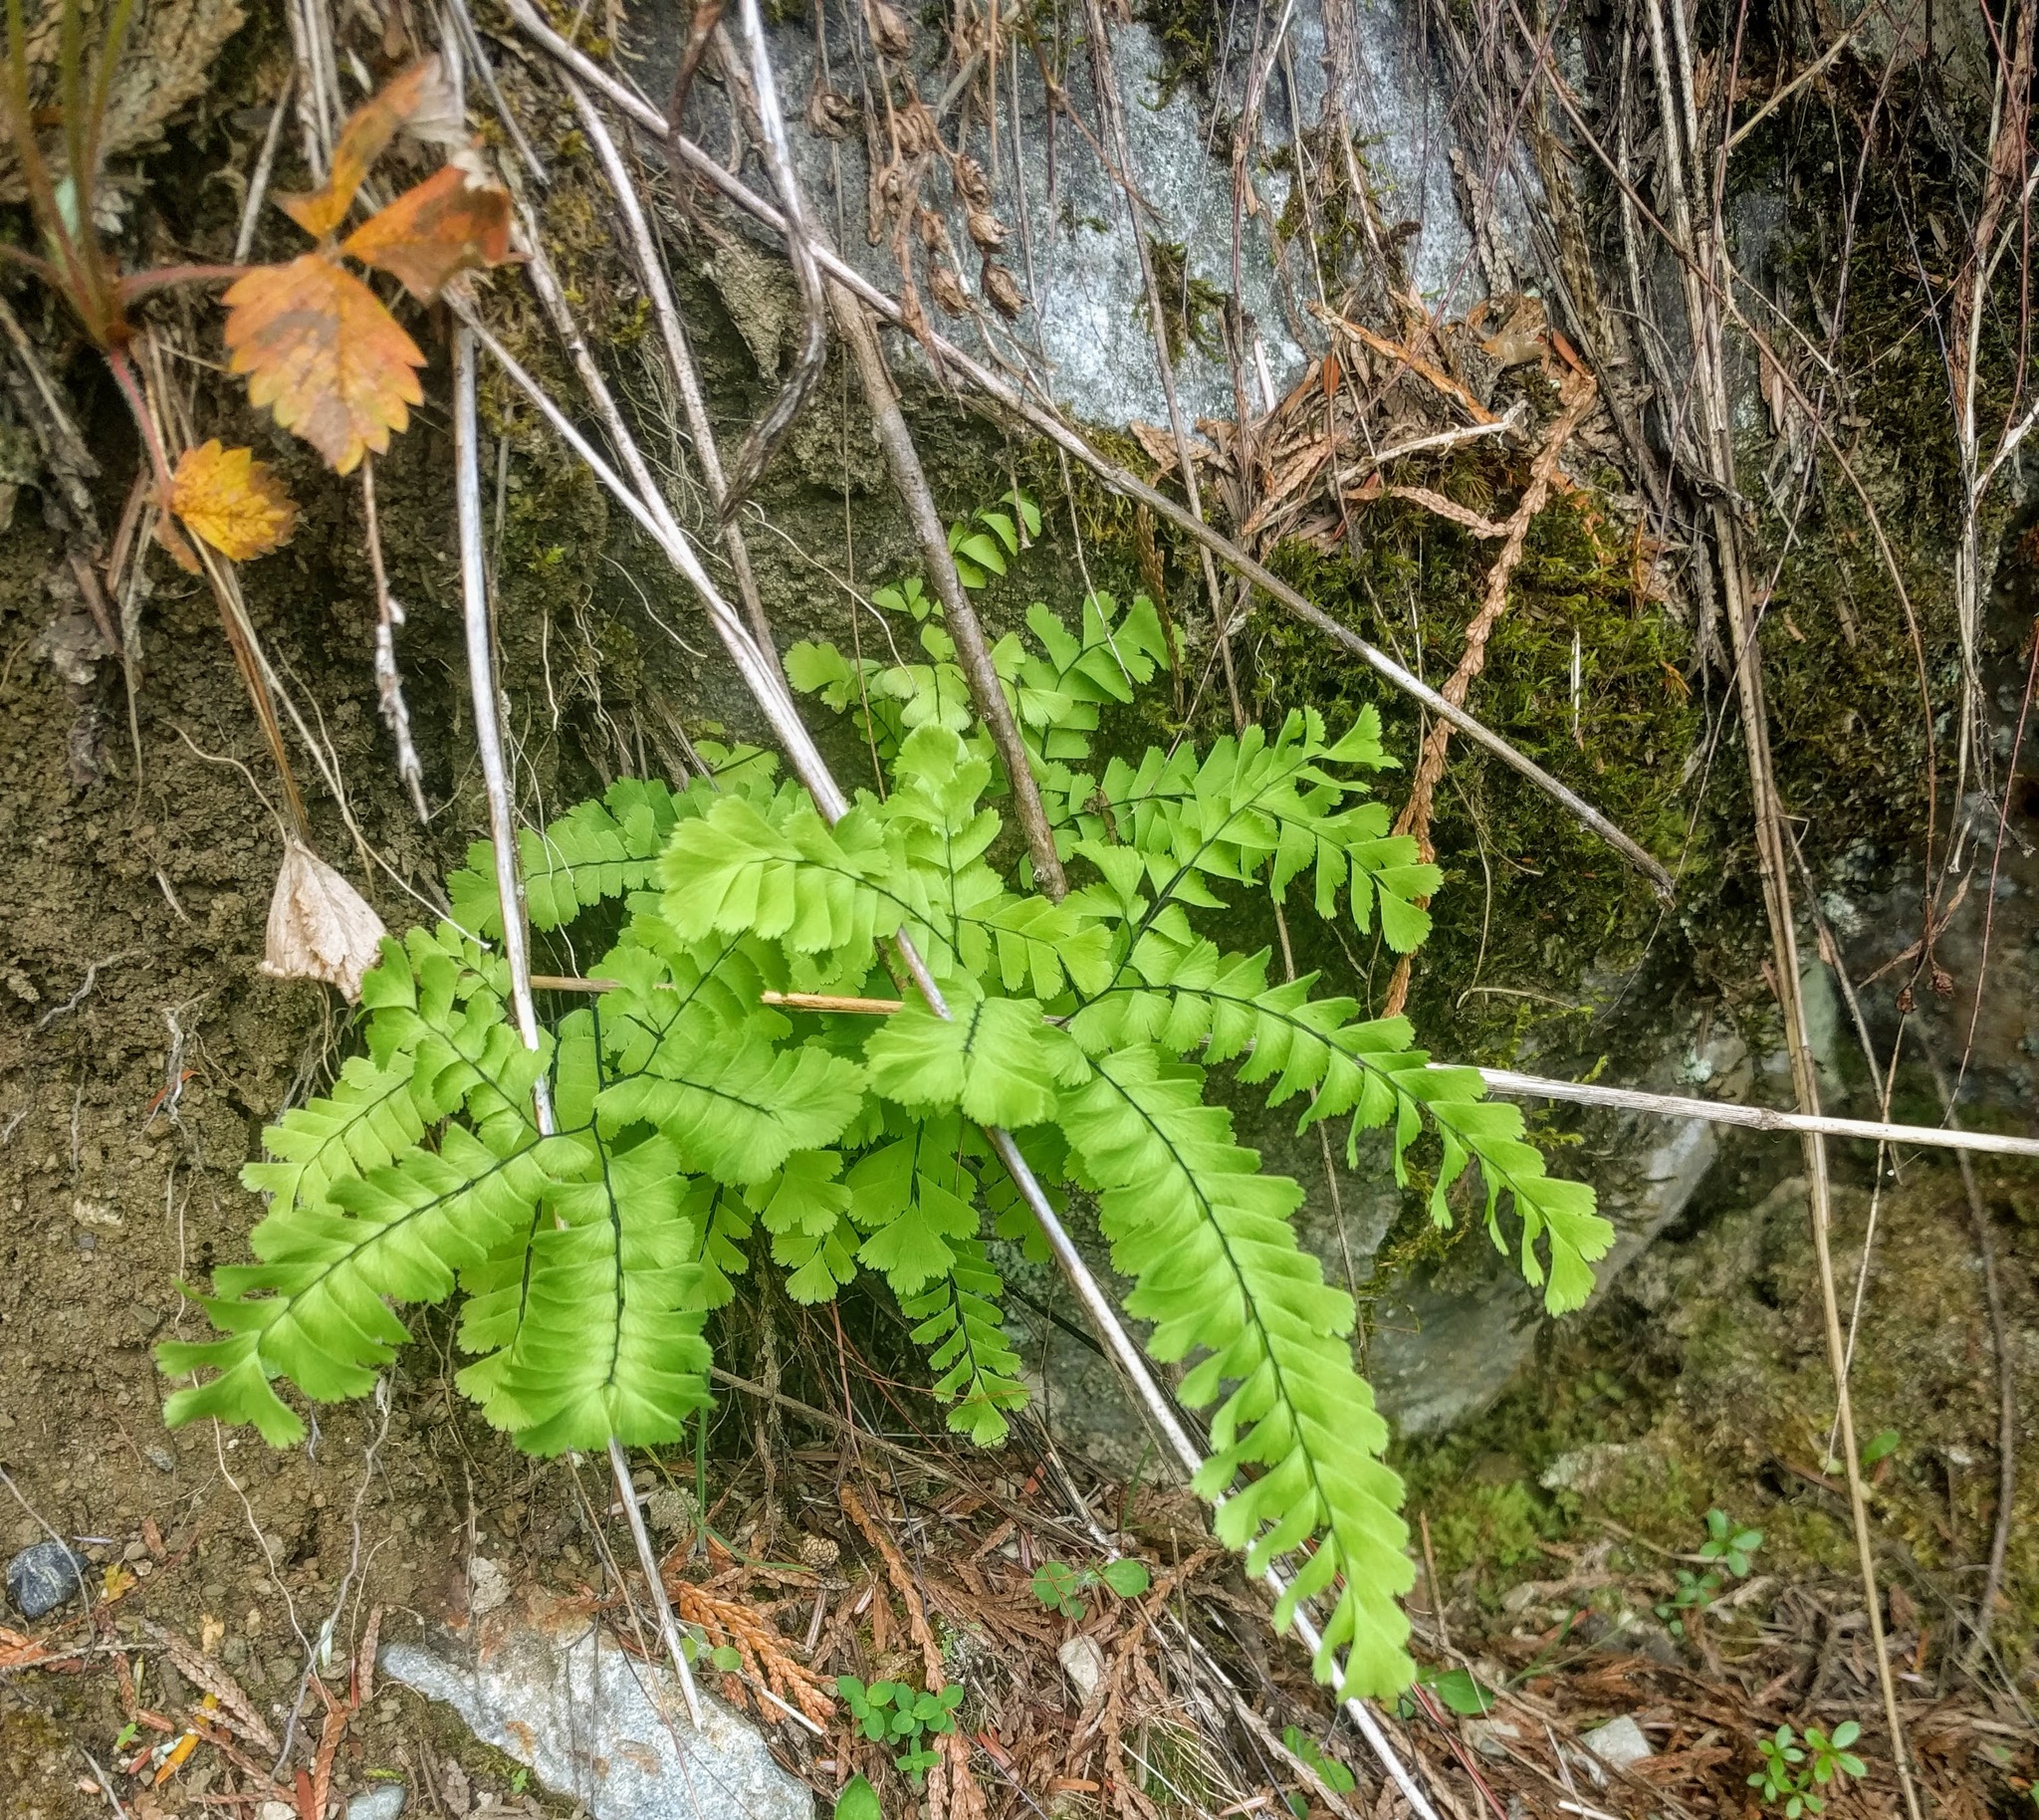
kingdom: Plantae
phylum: Tracheophyta
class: Polypodiopsida
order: Polypodiales
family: Pteridaceae
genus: Adiantum
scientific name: Adiantum aleuticum
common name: Aleutian maidenhair fern
